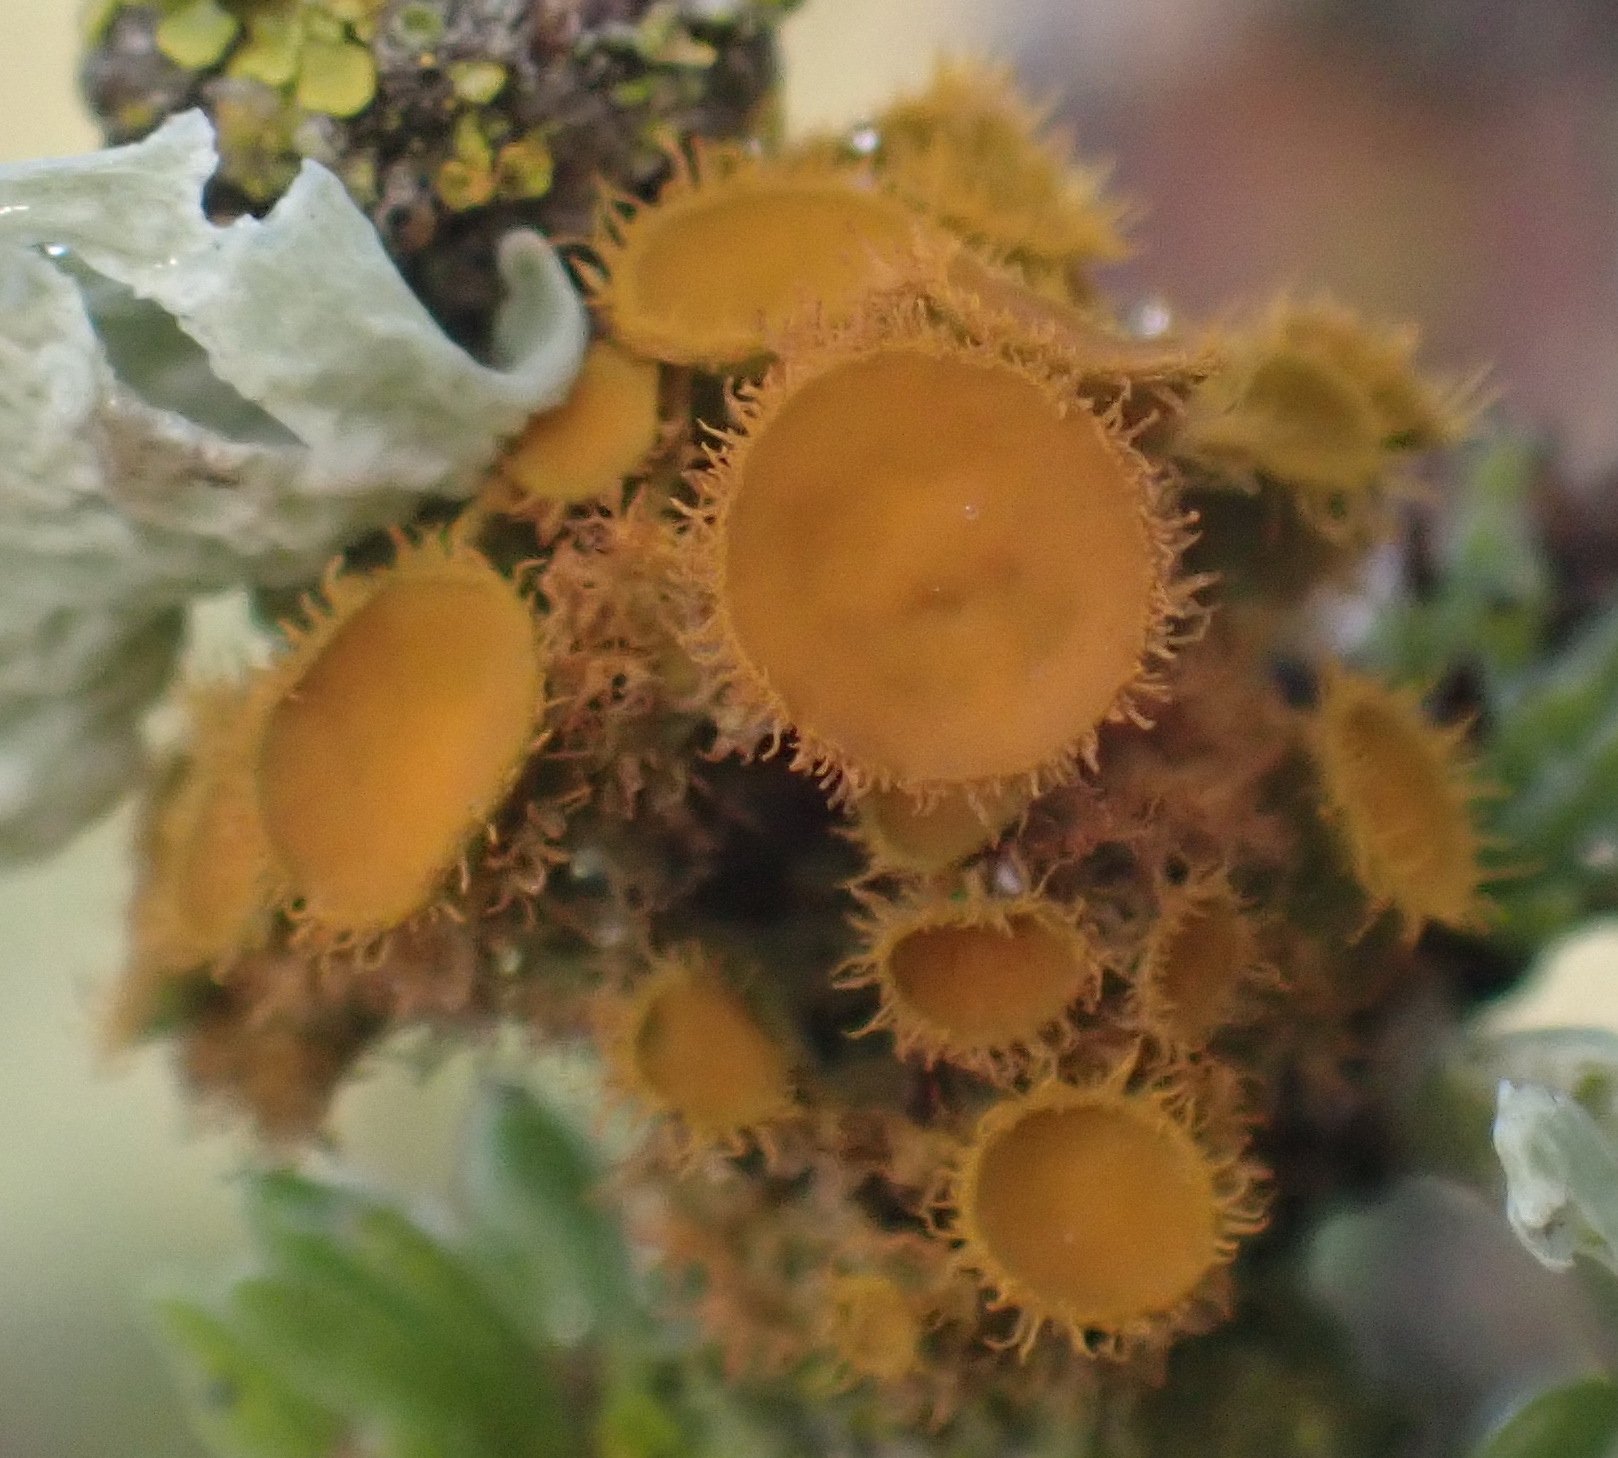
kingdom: Fungi
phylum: Ascomycota
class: Lecanoromycetes
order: Teloschistales
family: Teloschistaceae
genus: Niorma
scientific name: Niorma chrysophthalma
